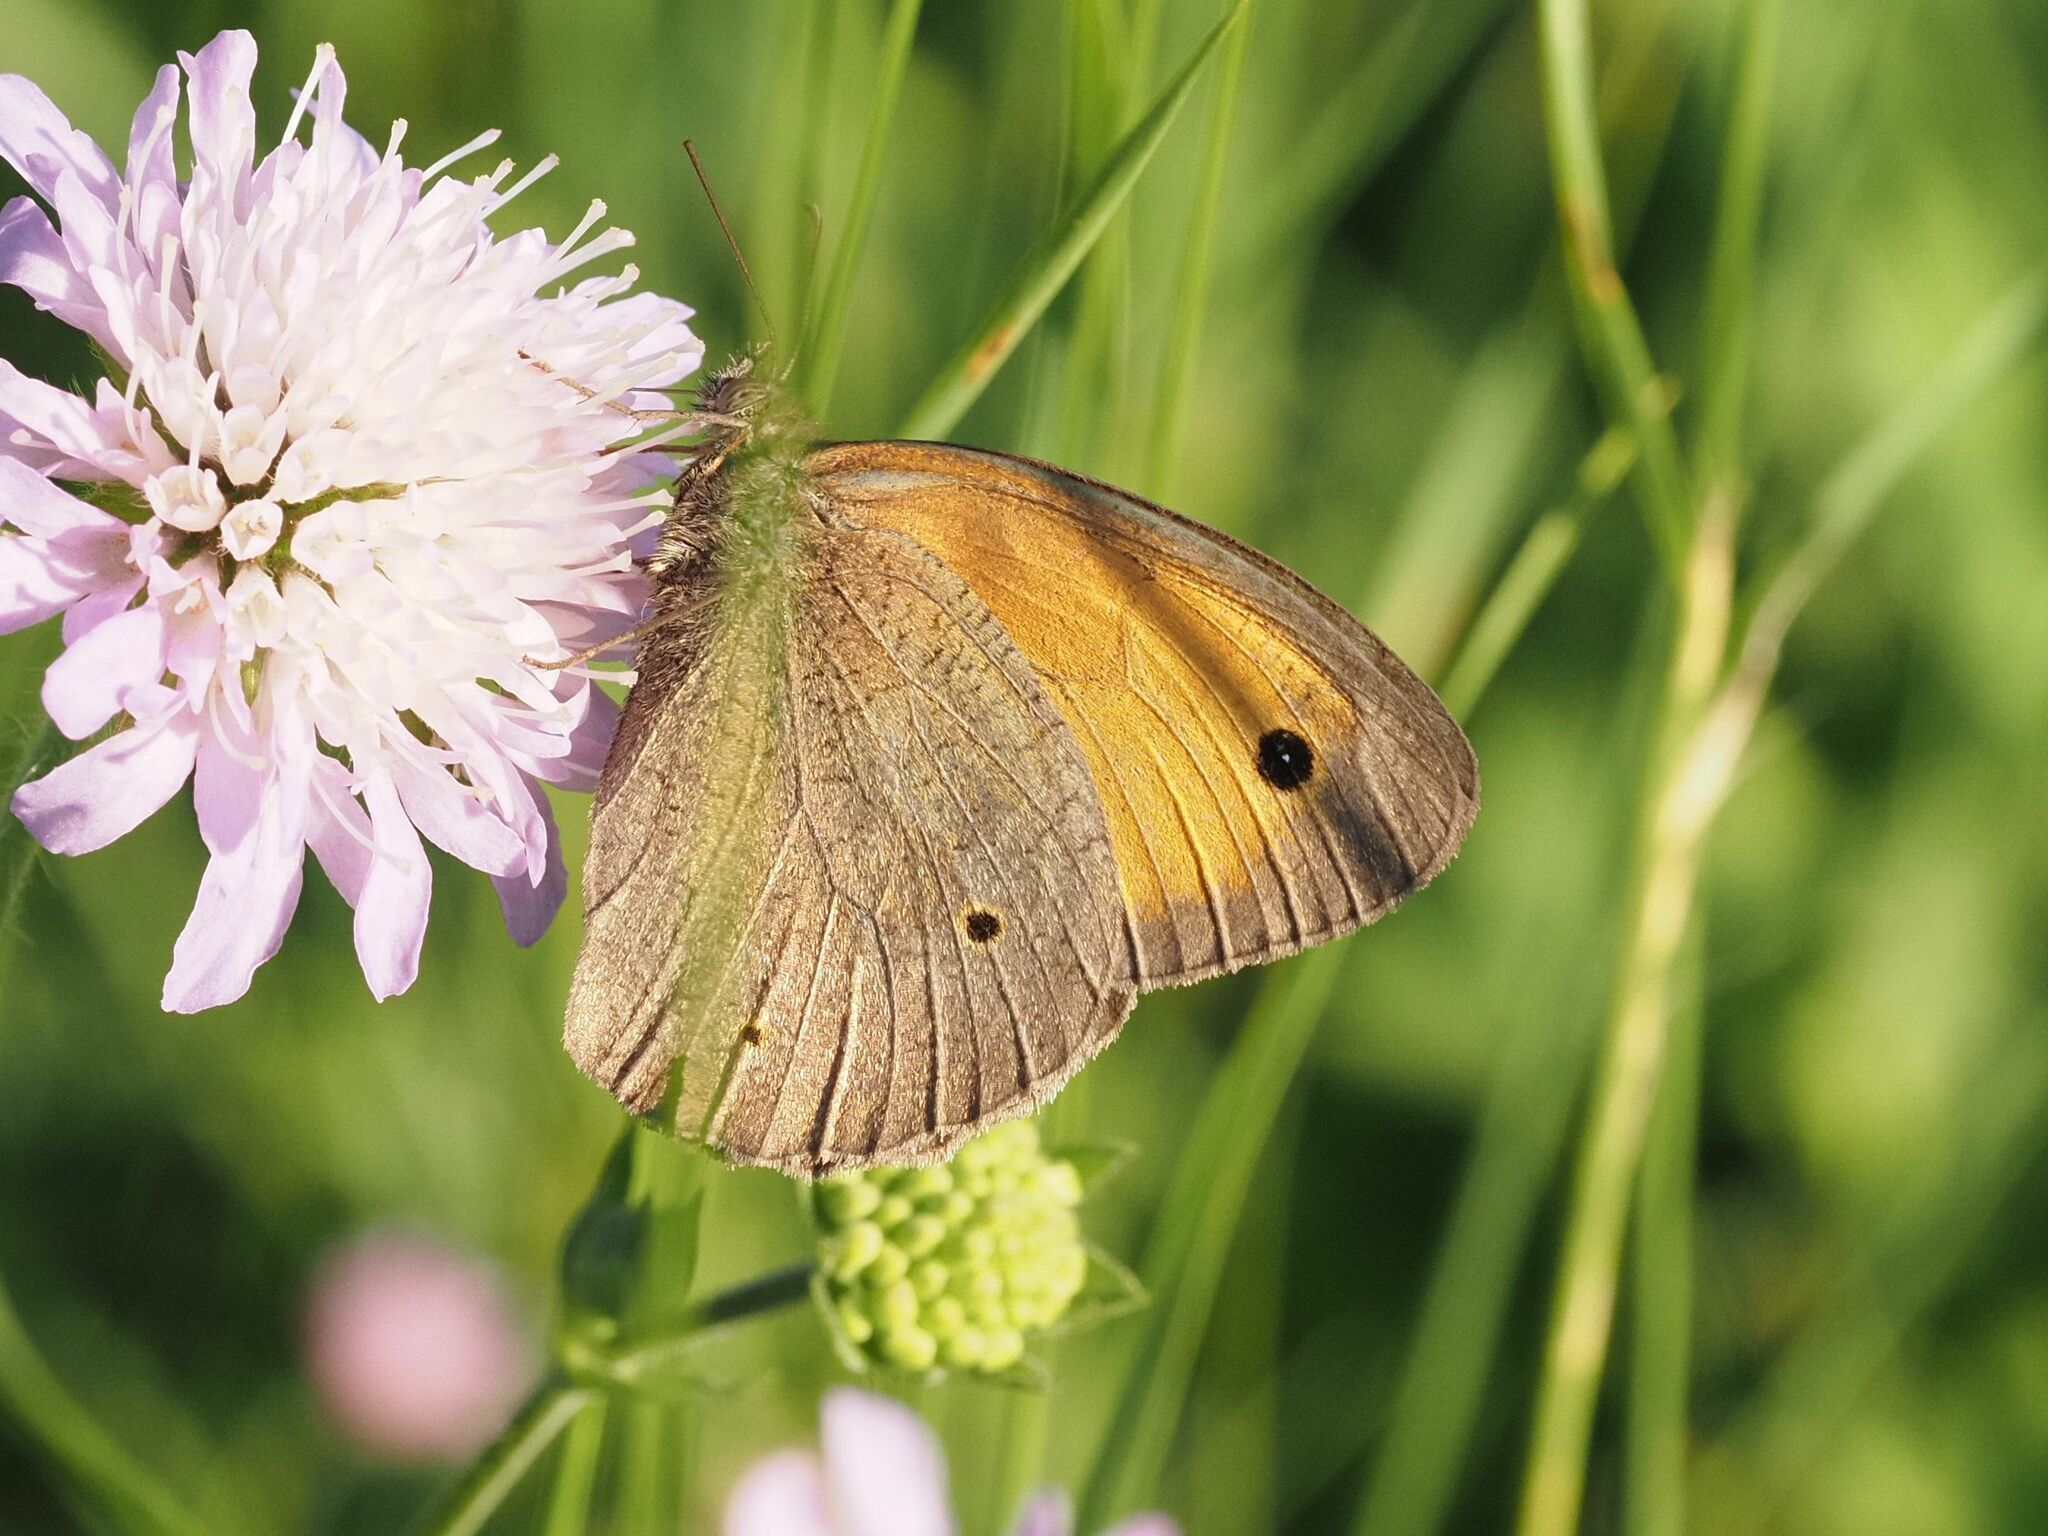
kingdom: Animalia
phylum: Arthropoda
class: Insecta
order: Lepidoptera
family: Nymphalidae
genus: Maniola
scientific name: Maniola jurtina
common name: Meadow brown
